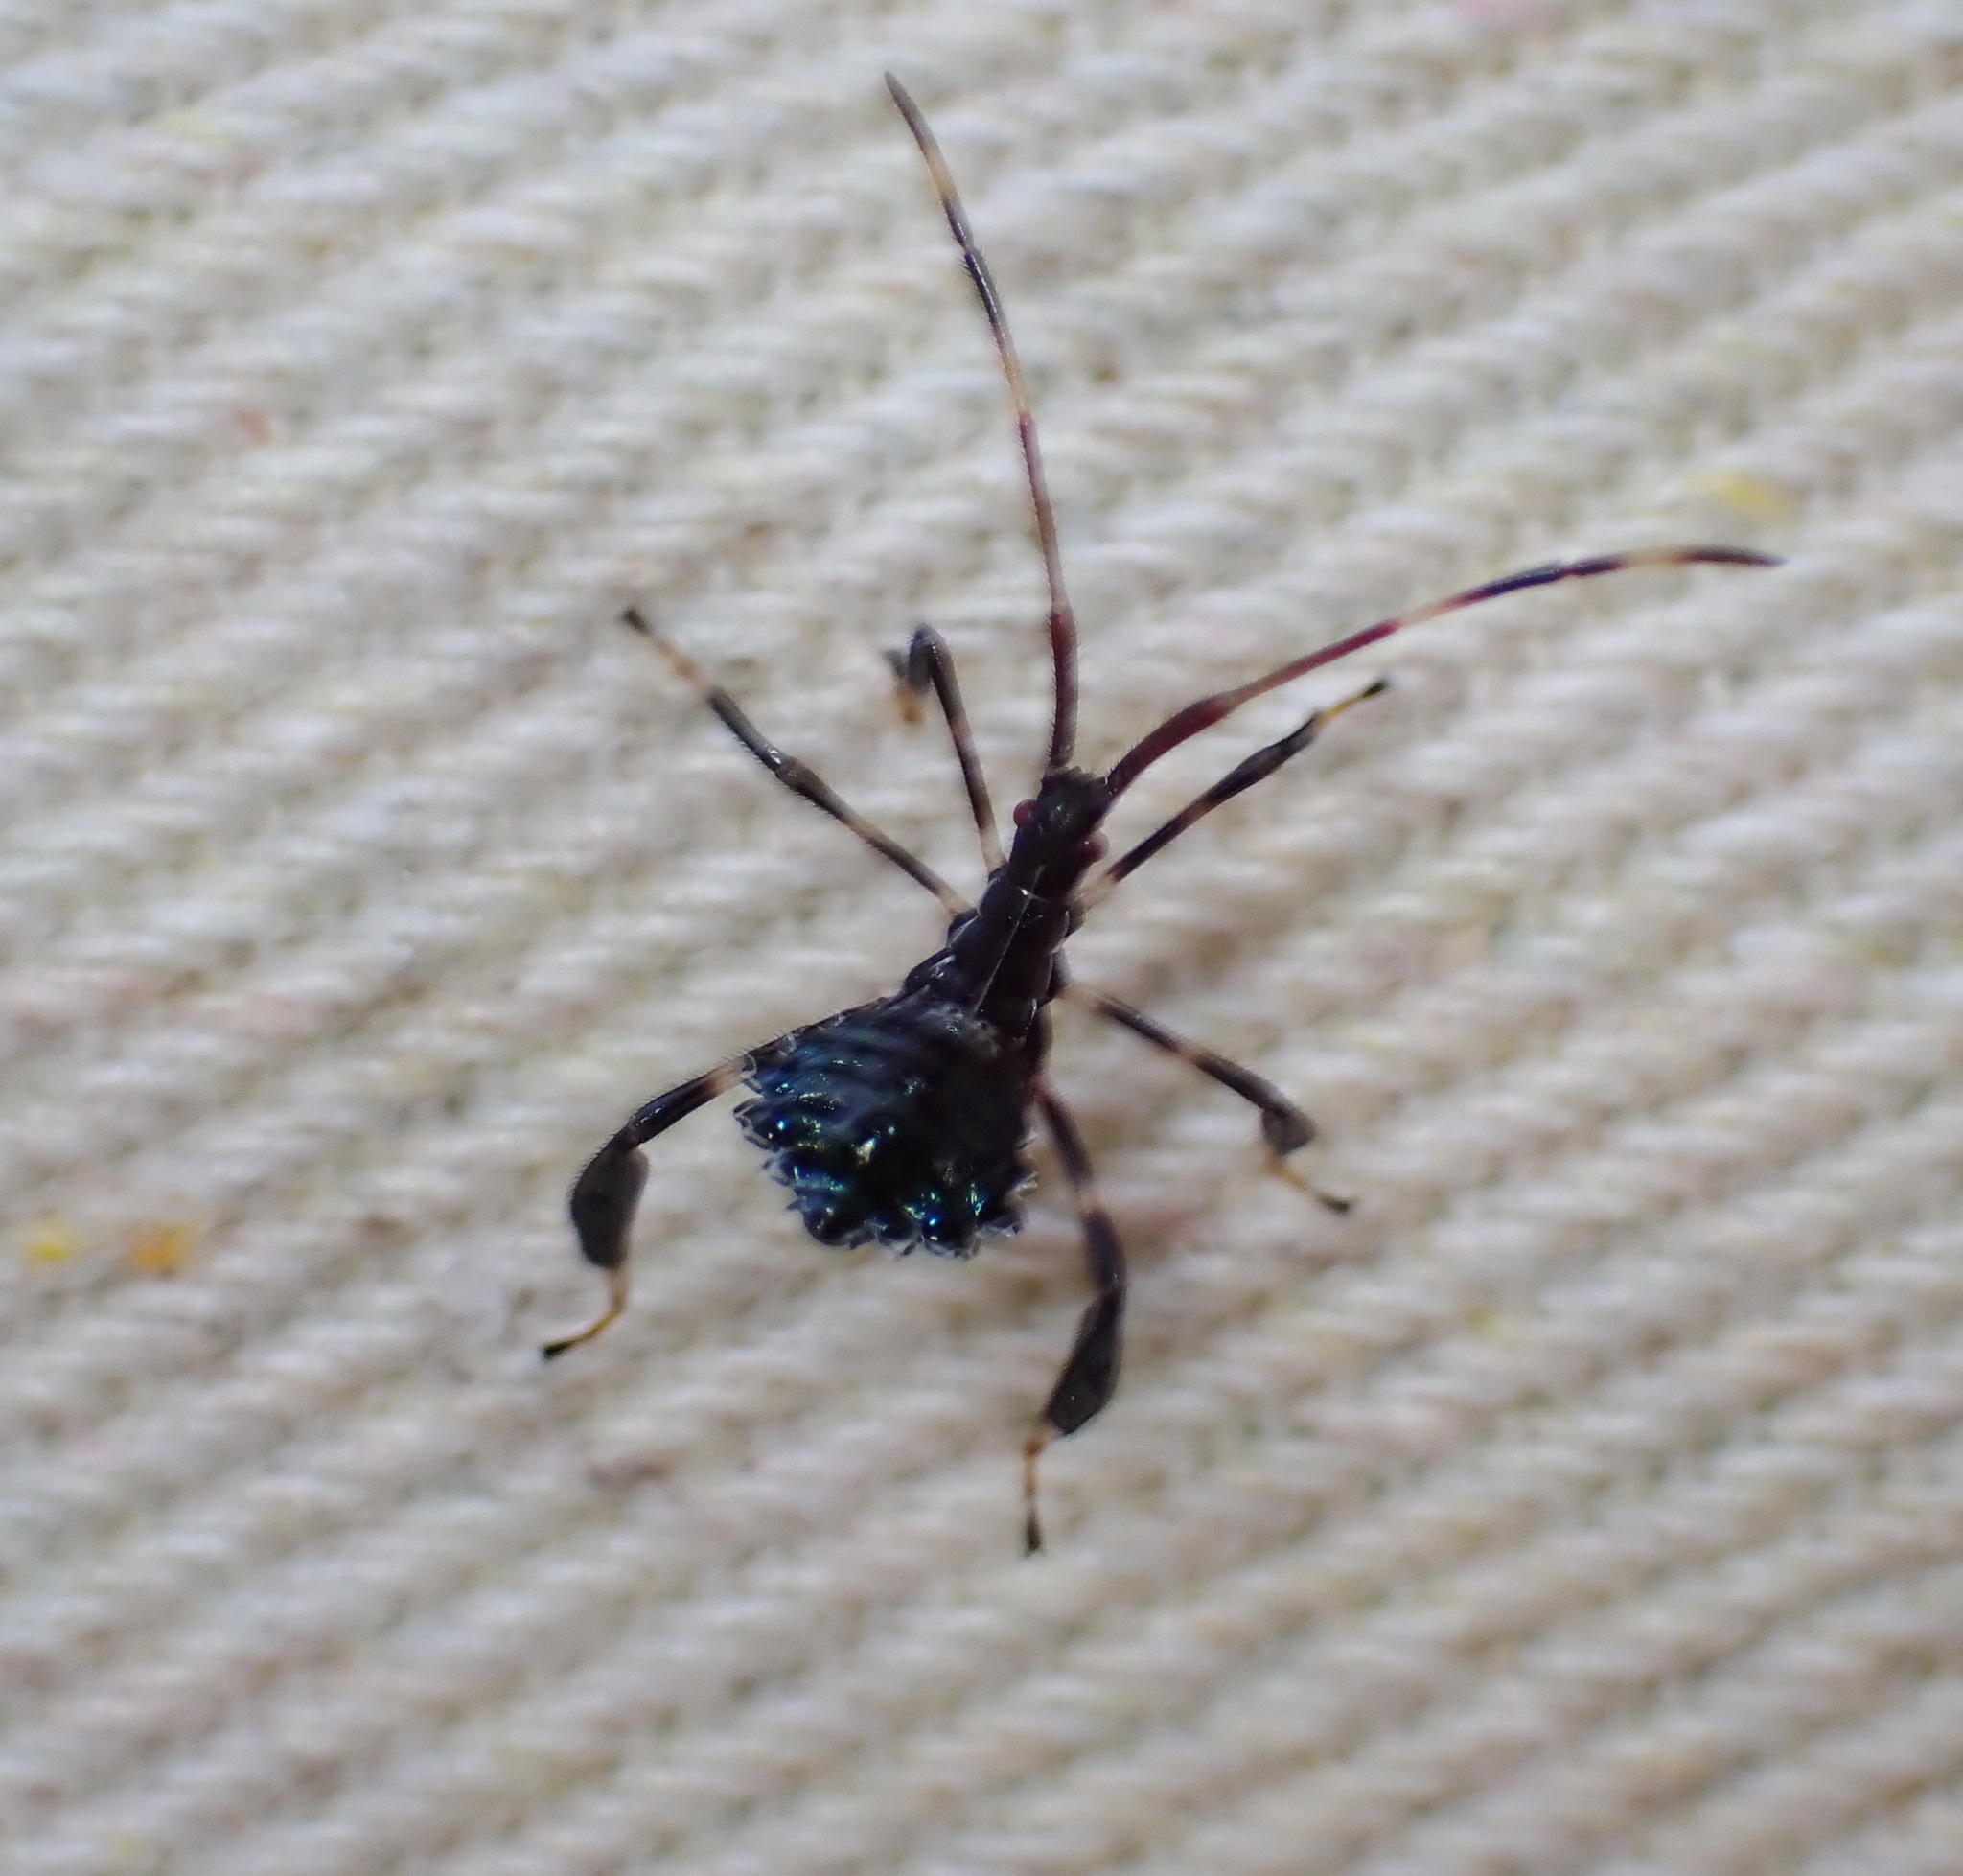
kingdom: Animalia
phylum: Arthropoda
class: Insecta
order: Hemiptera
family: Coreidae
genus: Acanthocephala
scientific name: Acanthocephala terminalis
